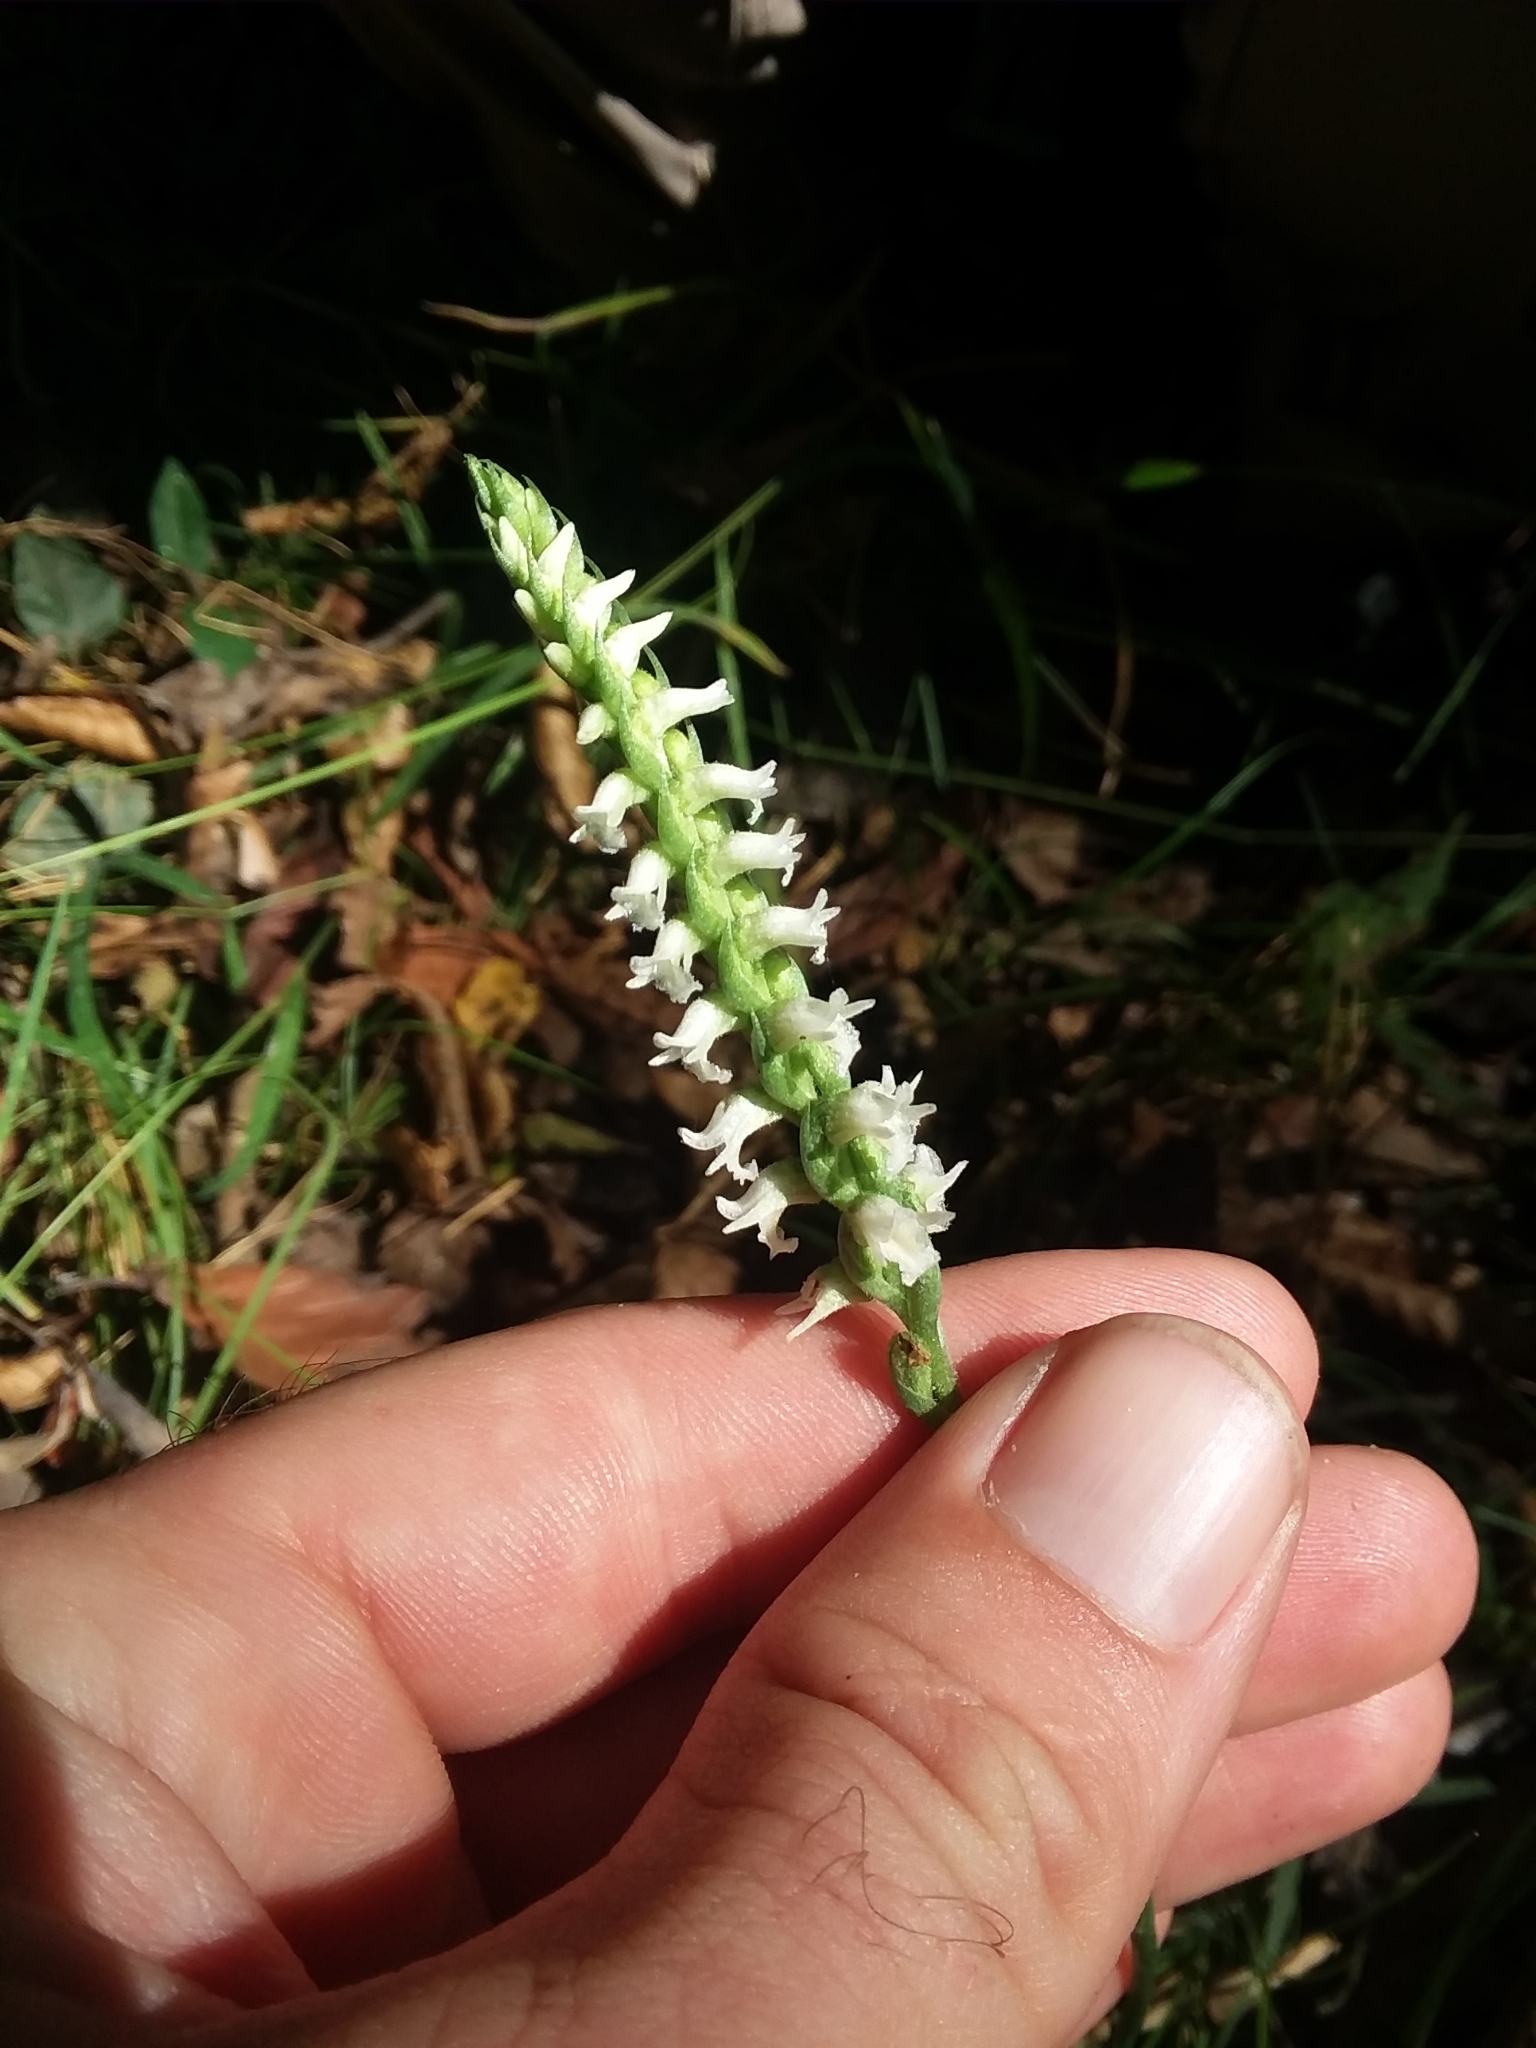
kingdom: Plantae
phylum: Tracheophyta
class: Liliopsida
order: Asparagales
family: Orchidaceae
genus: Spiranthes
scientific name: Spiranthes ovalis
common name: October ladies'-tresses
